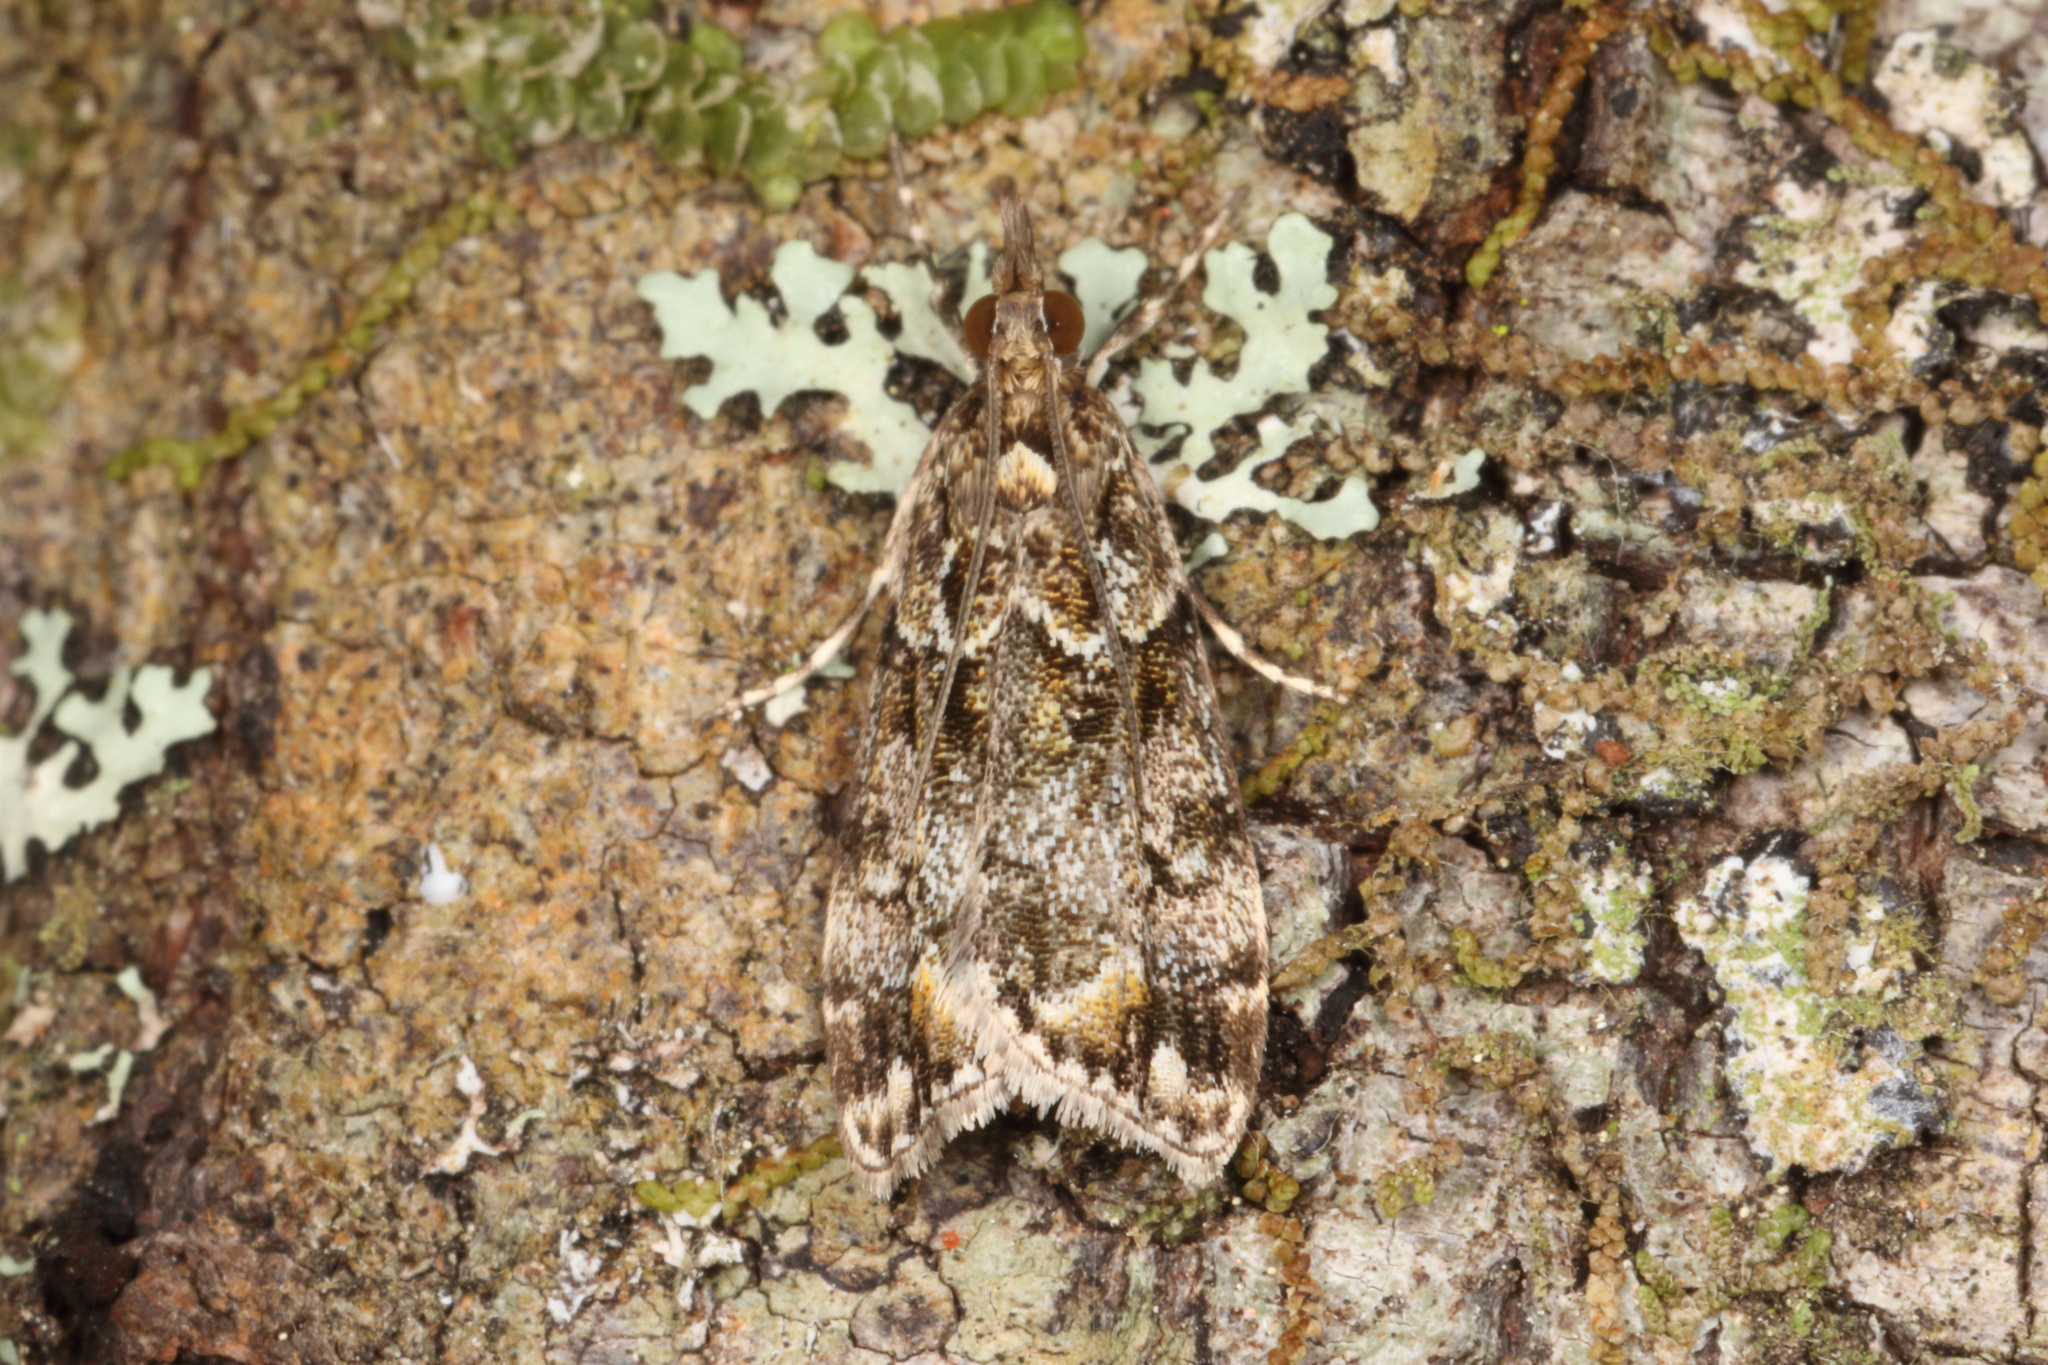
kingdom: Animalia
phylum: Arthropoda
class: Insecta
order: Lepidoptera
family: Crambidae
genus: Eudonia
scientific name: Eudonia minualis
